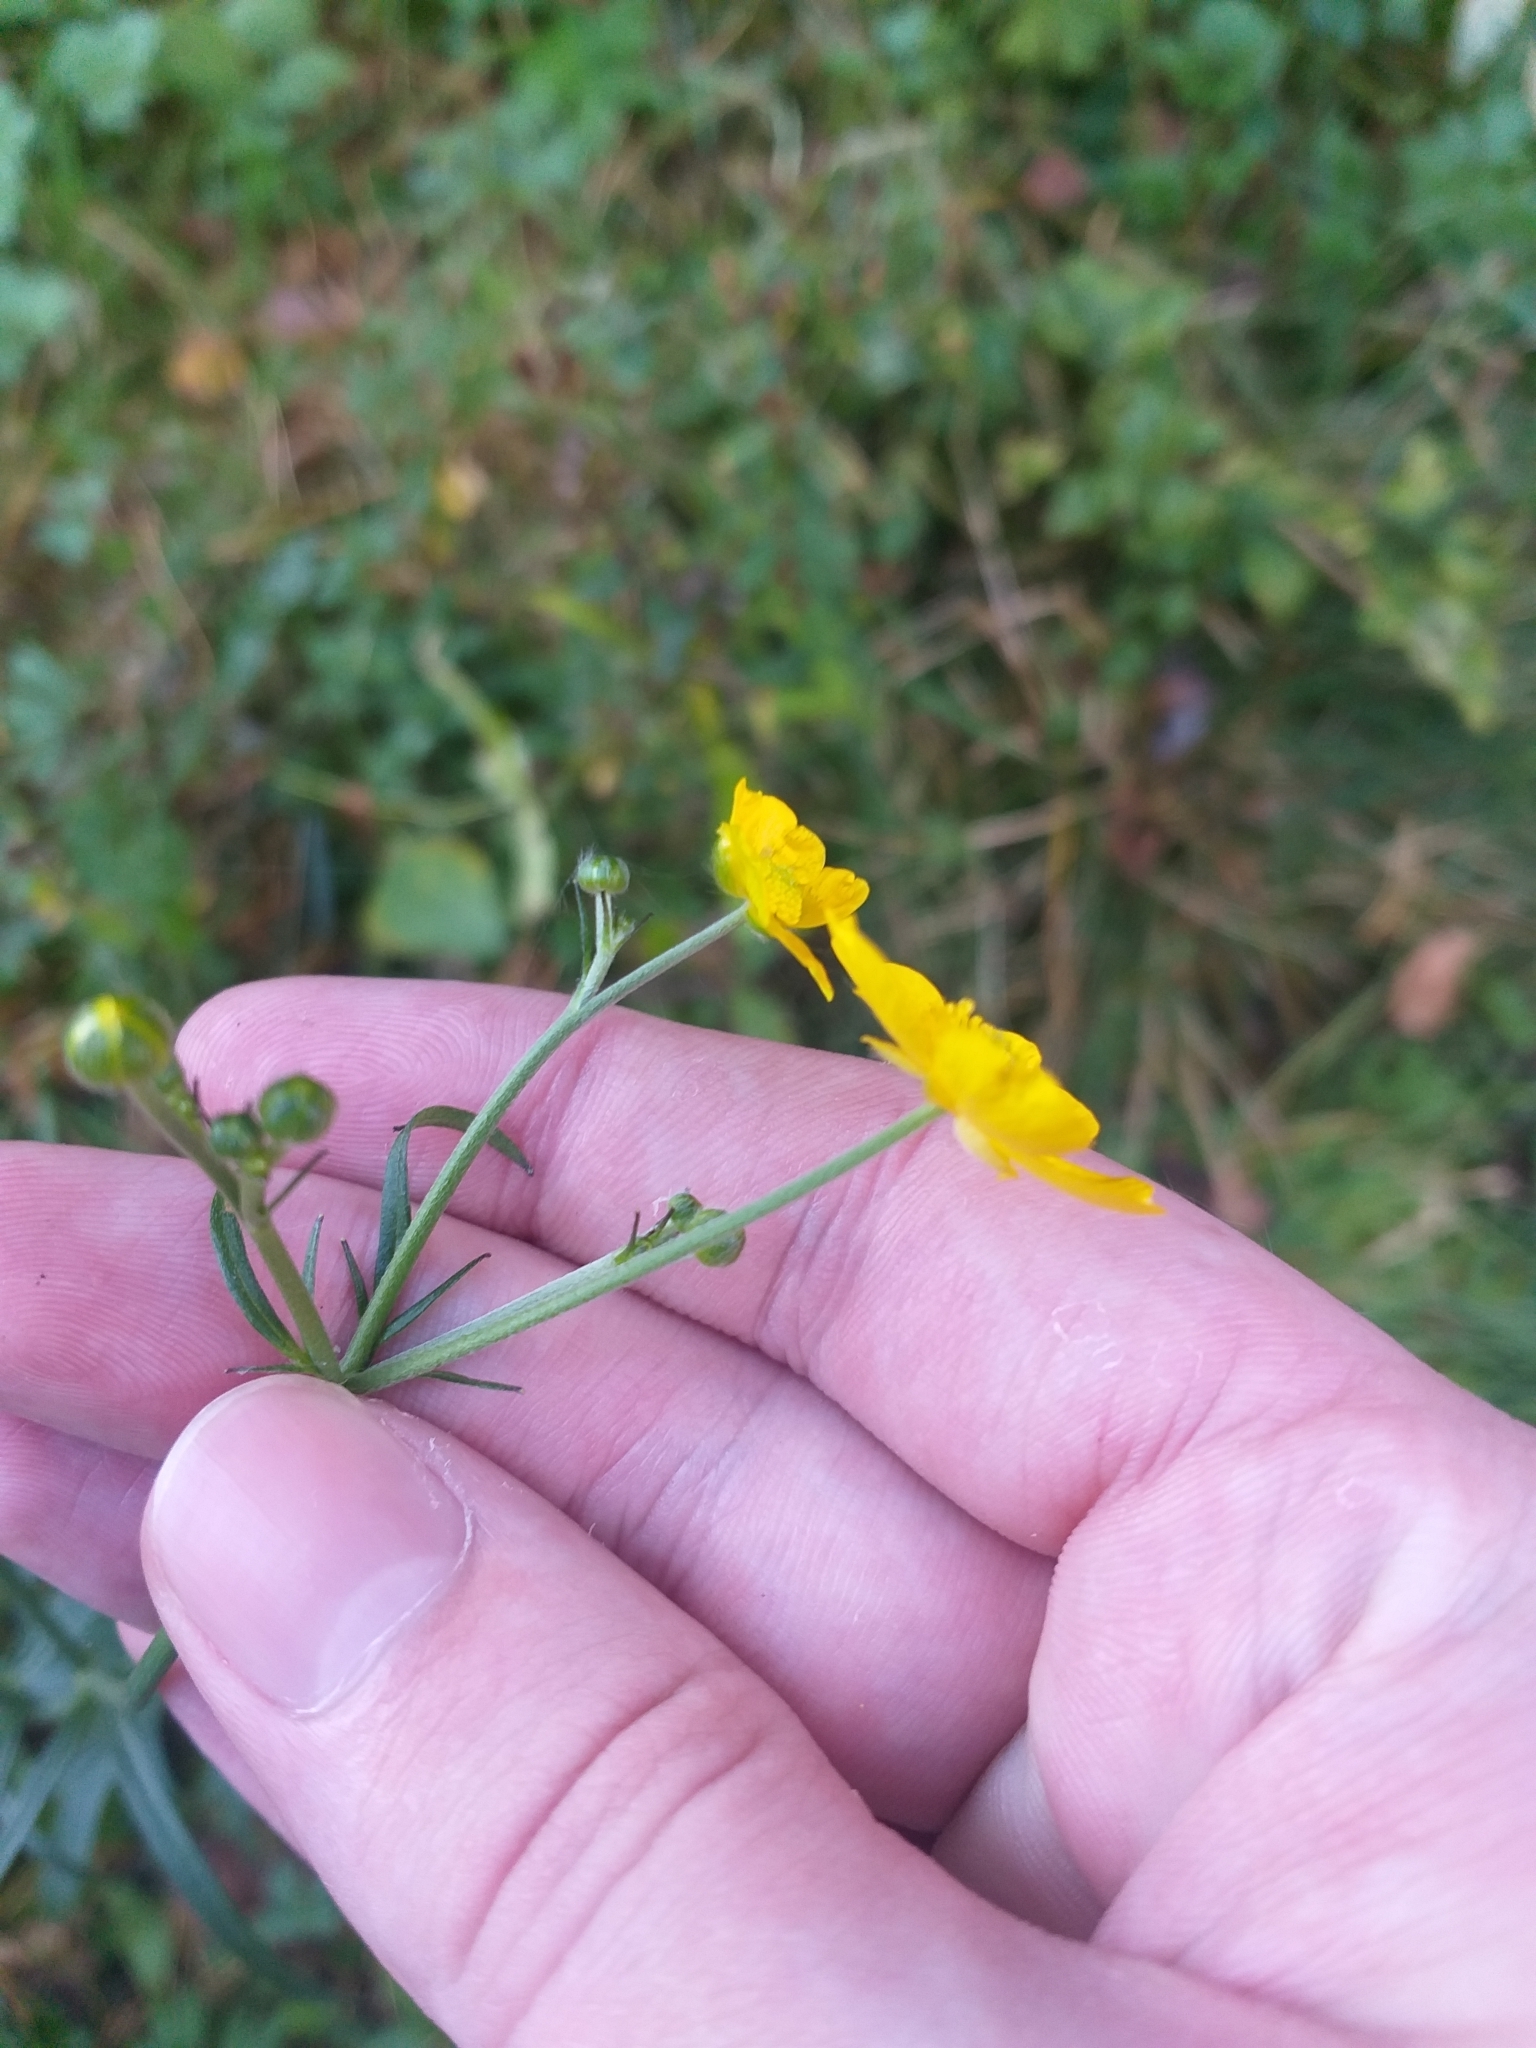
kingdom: Plantae
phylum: Tracheophyta
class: Magnoliopsida
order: Ranunculales
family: Ranunculaceae
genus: Ranunculus
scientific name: Ranunculus acris
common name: Meadow buttercup
